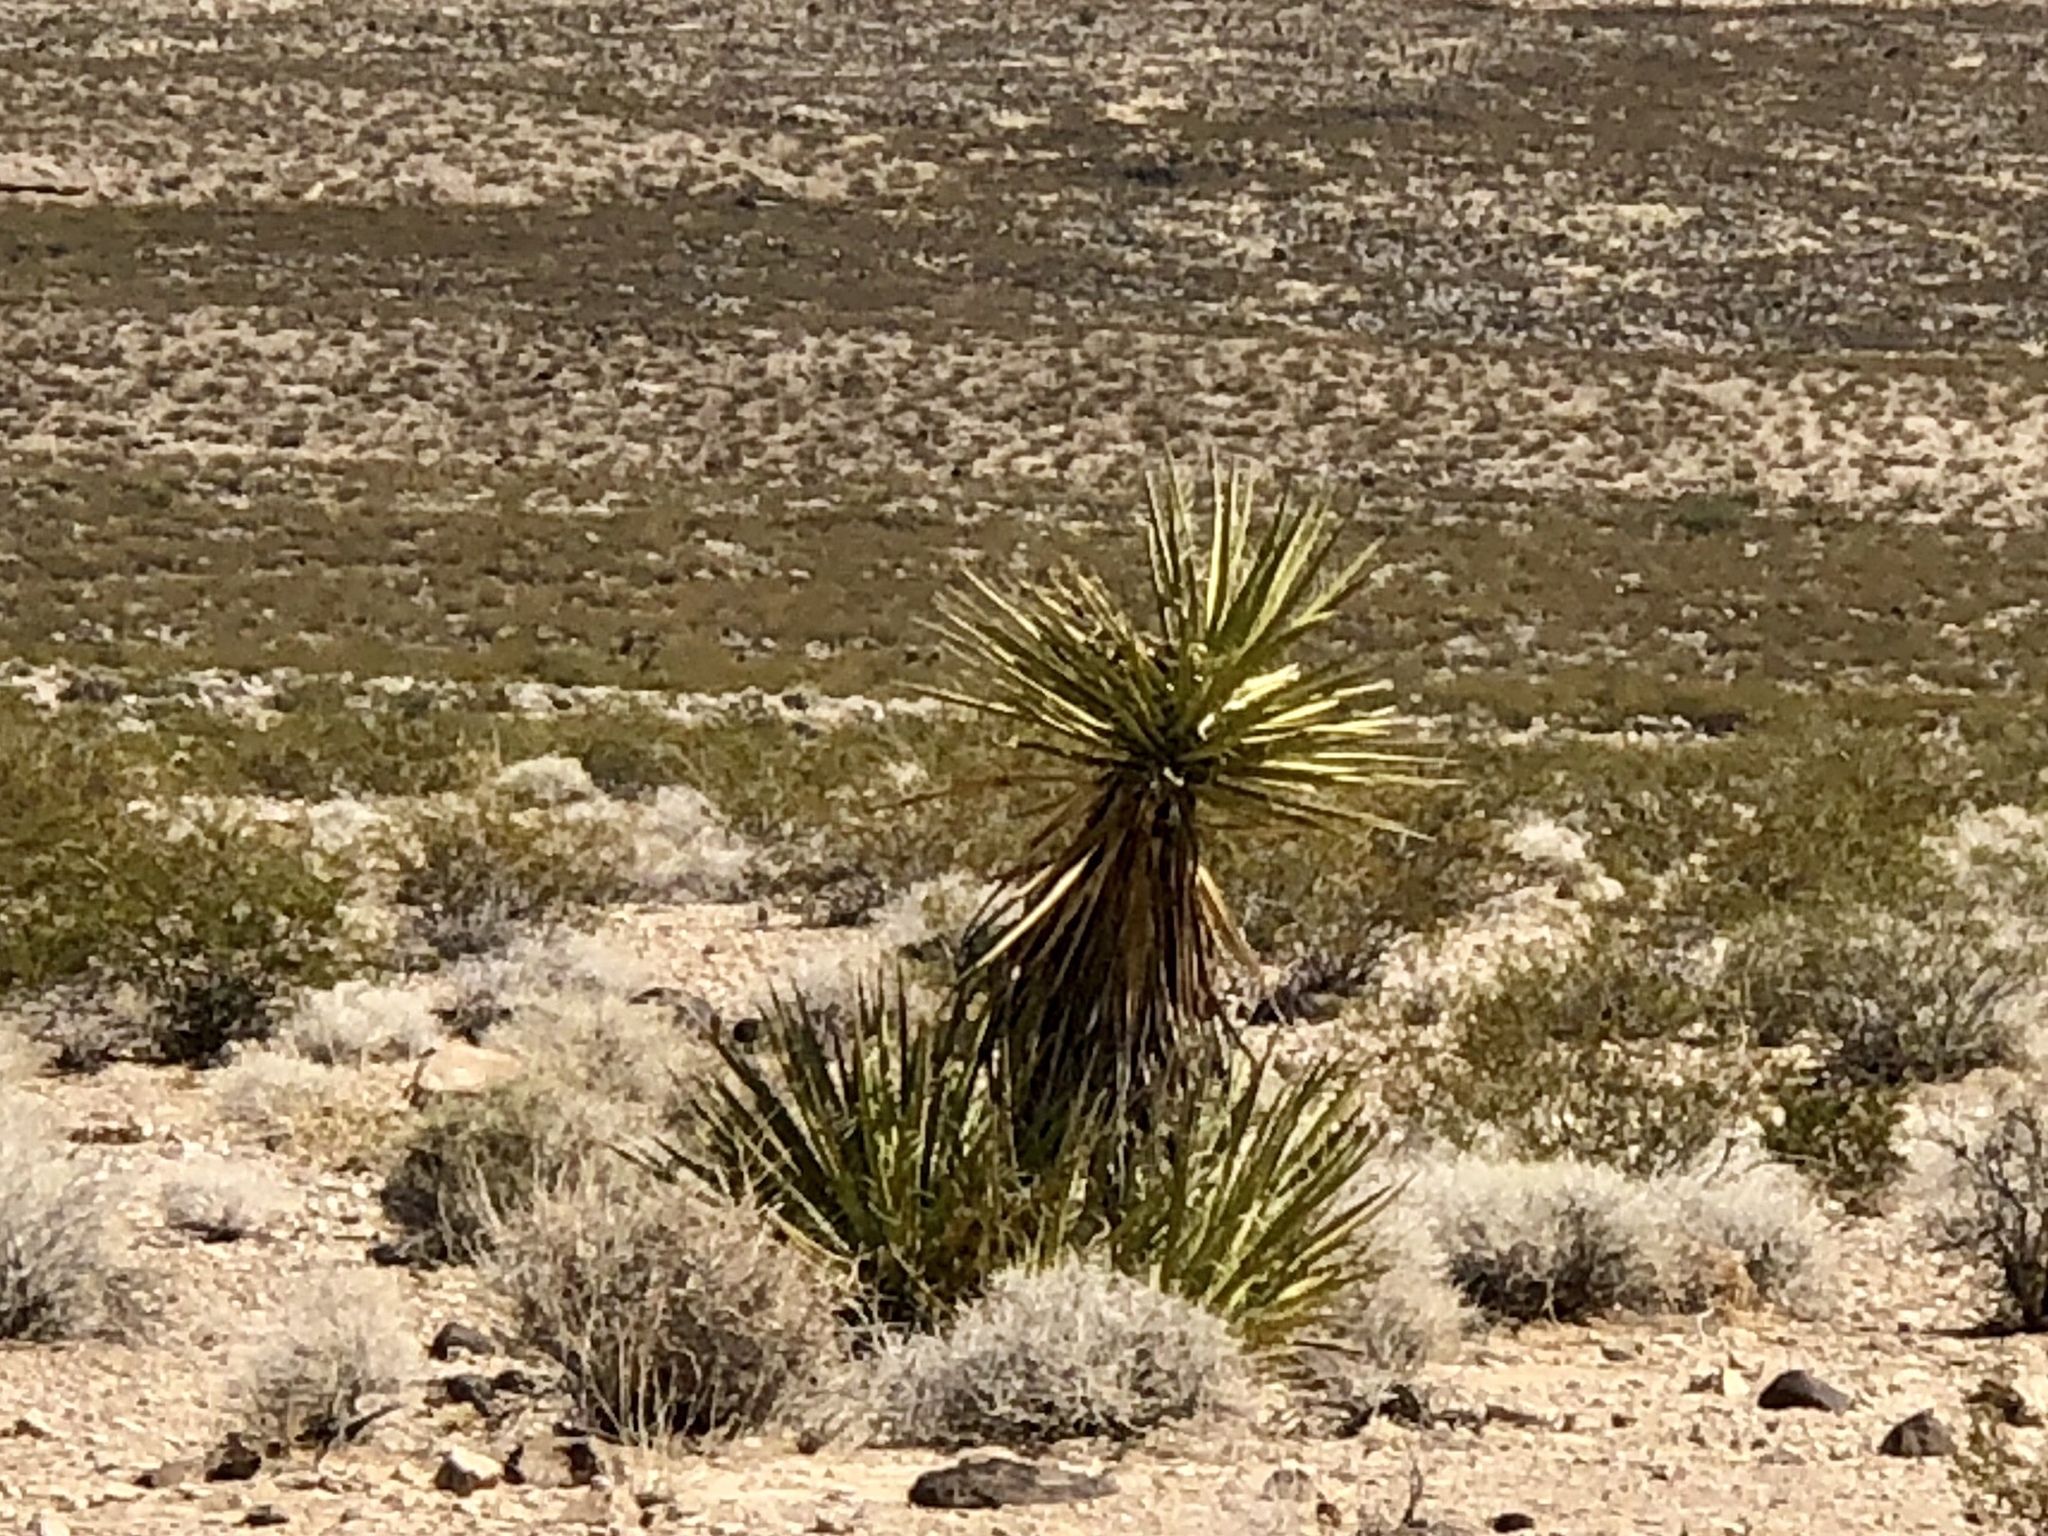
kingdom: Plantae
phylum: Tracheophyta
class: Liliopsida
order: Asparagales
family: Asparagaceae
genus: Yucca
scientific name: Yucca schidigera
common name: Mojave yucca
